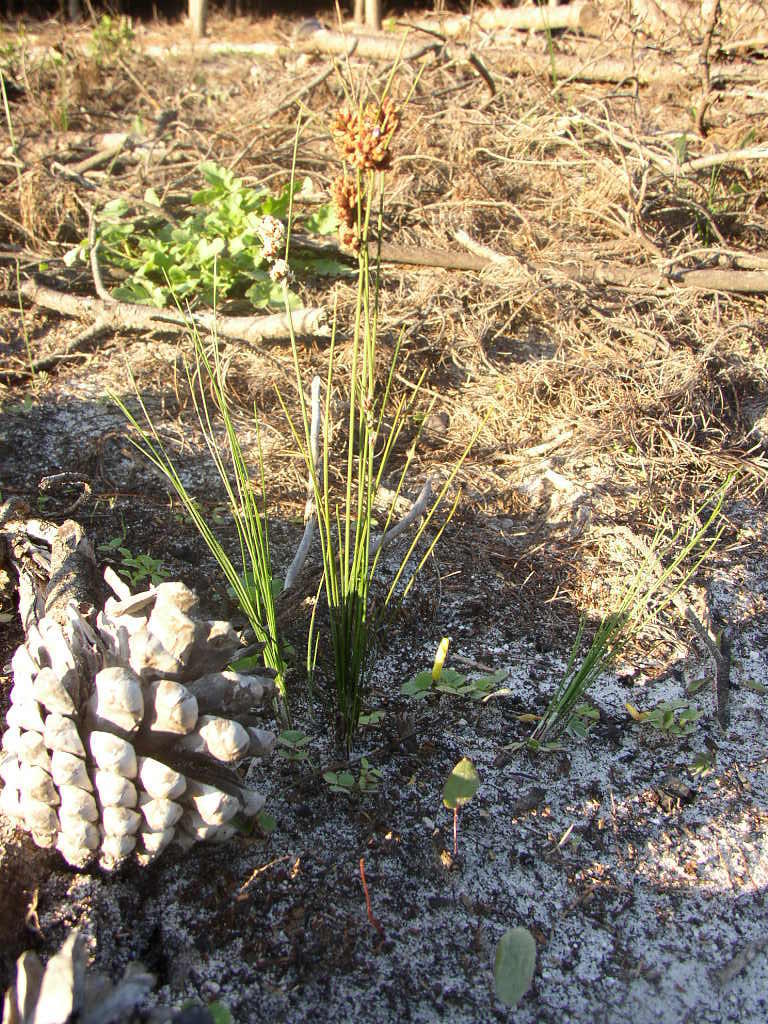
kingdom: Plantae
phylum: Tracheophyta
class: Liliopsida
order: Poales
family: Cyperaceae
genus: Ficinia
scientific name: Ficinia bulbosa
